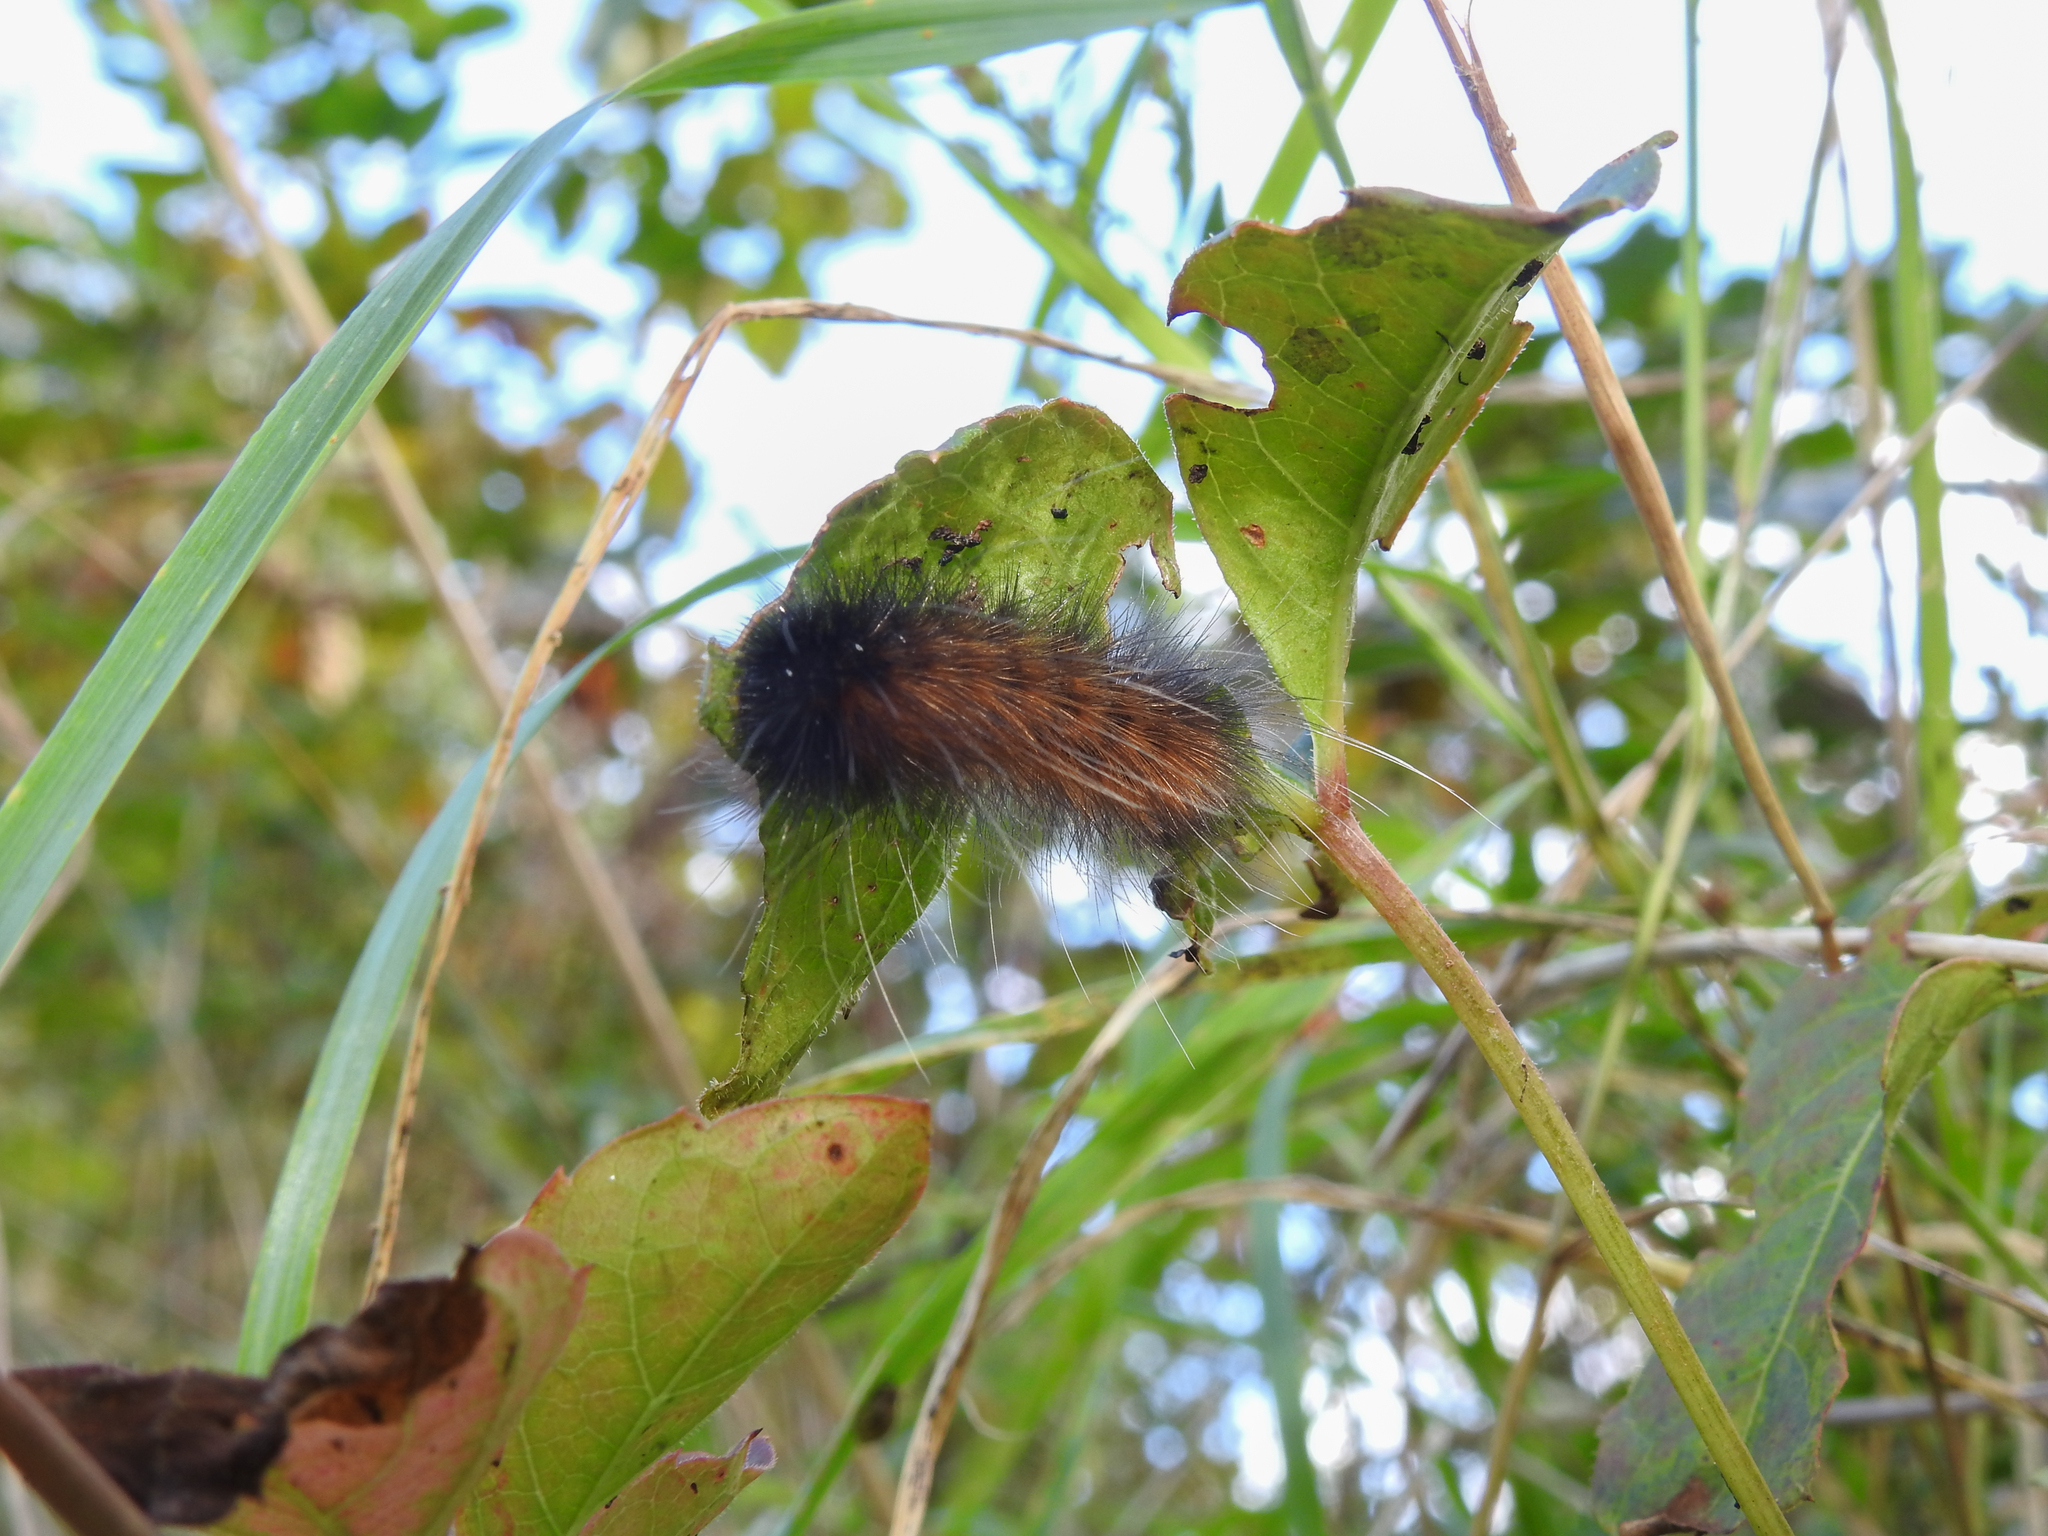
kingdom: Animalia
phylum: Arthropoda
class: Insecta
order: Lepidoptera
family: Erebidae
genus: Spilosoma
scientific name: Spilosoma virginica
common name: Virginia tiger moth
